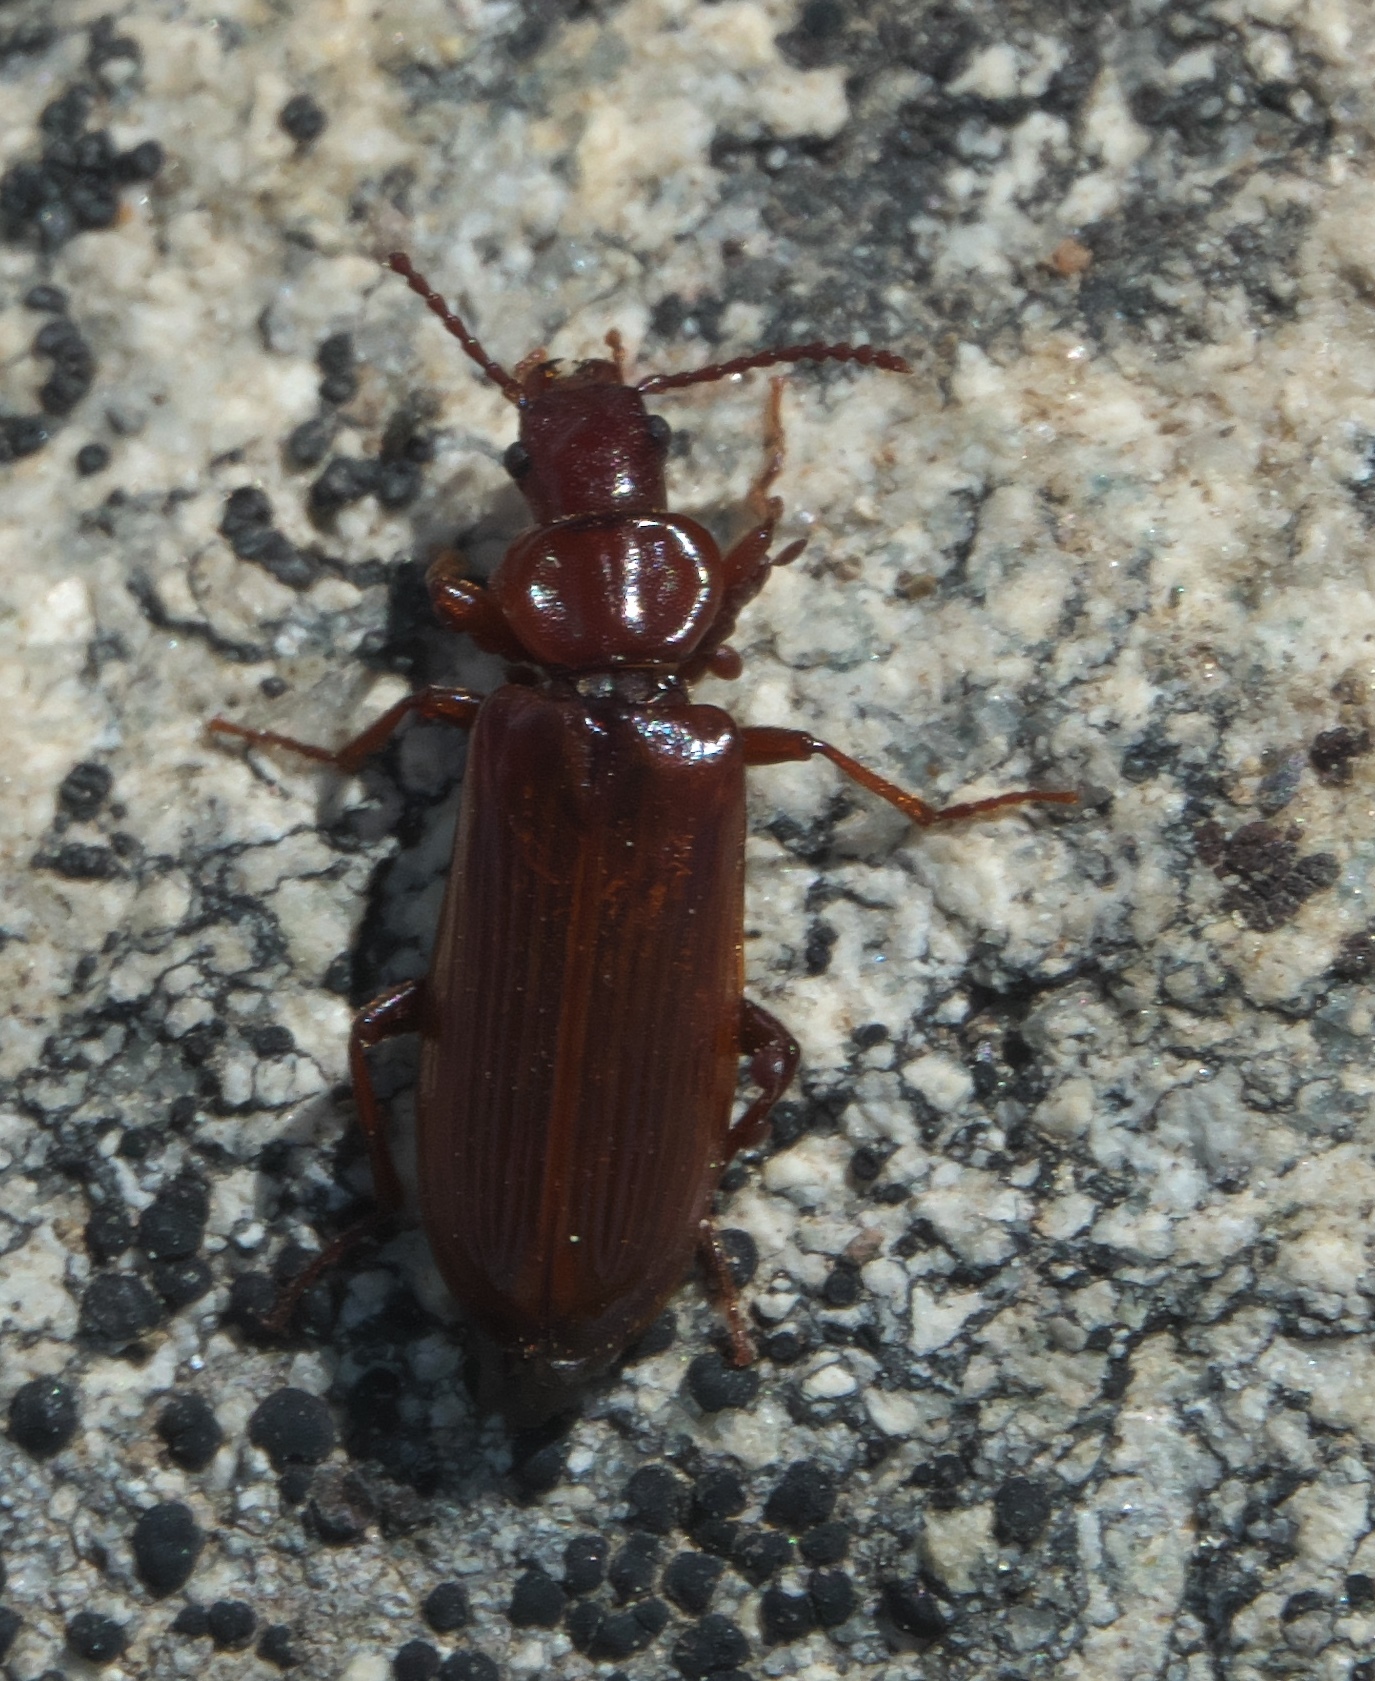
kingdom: Animalia
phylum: Arthropoda
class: Insecta
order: Coleoptera
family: Pythidae
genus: Pytho
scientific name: Pytho americanus
